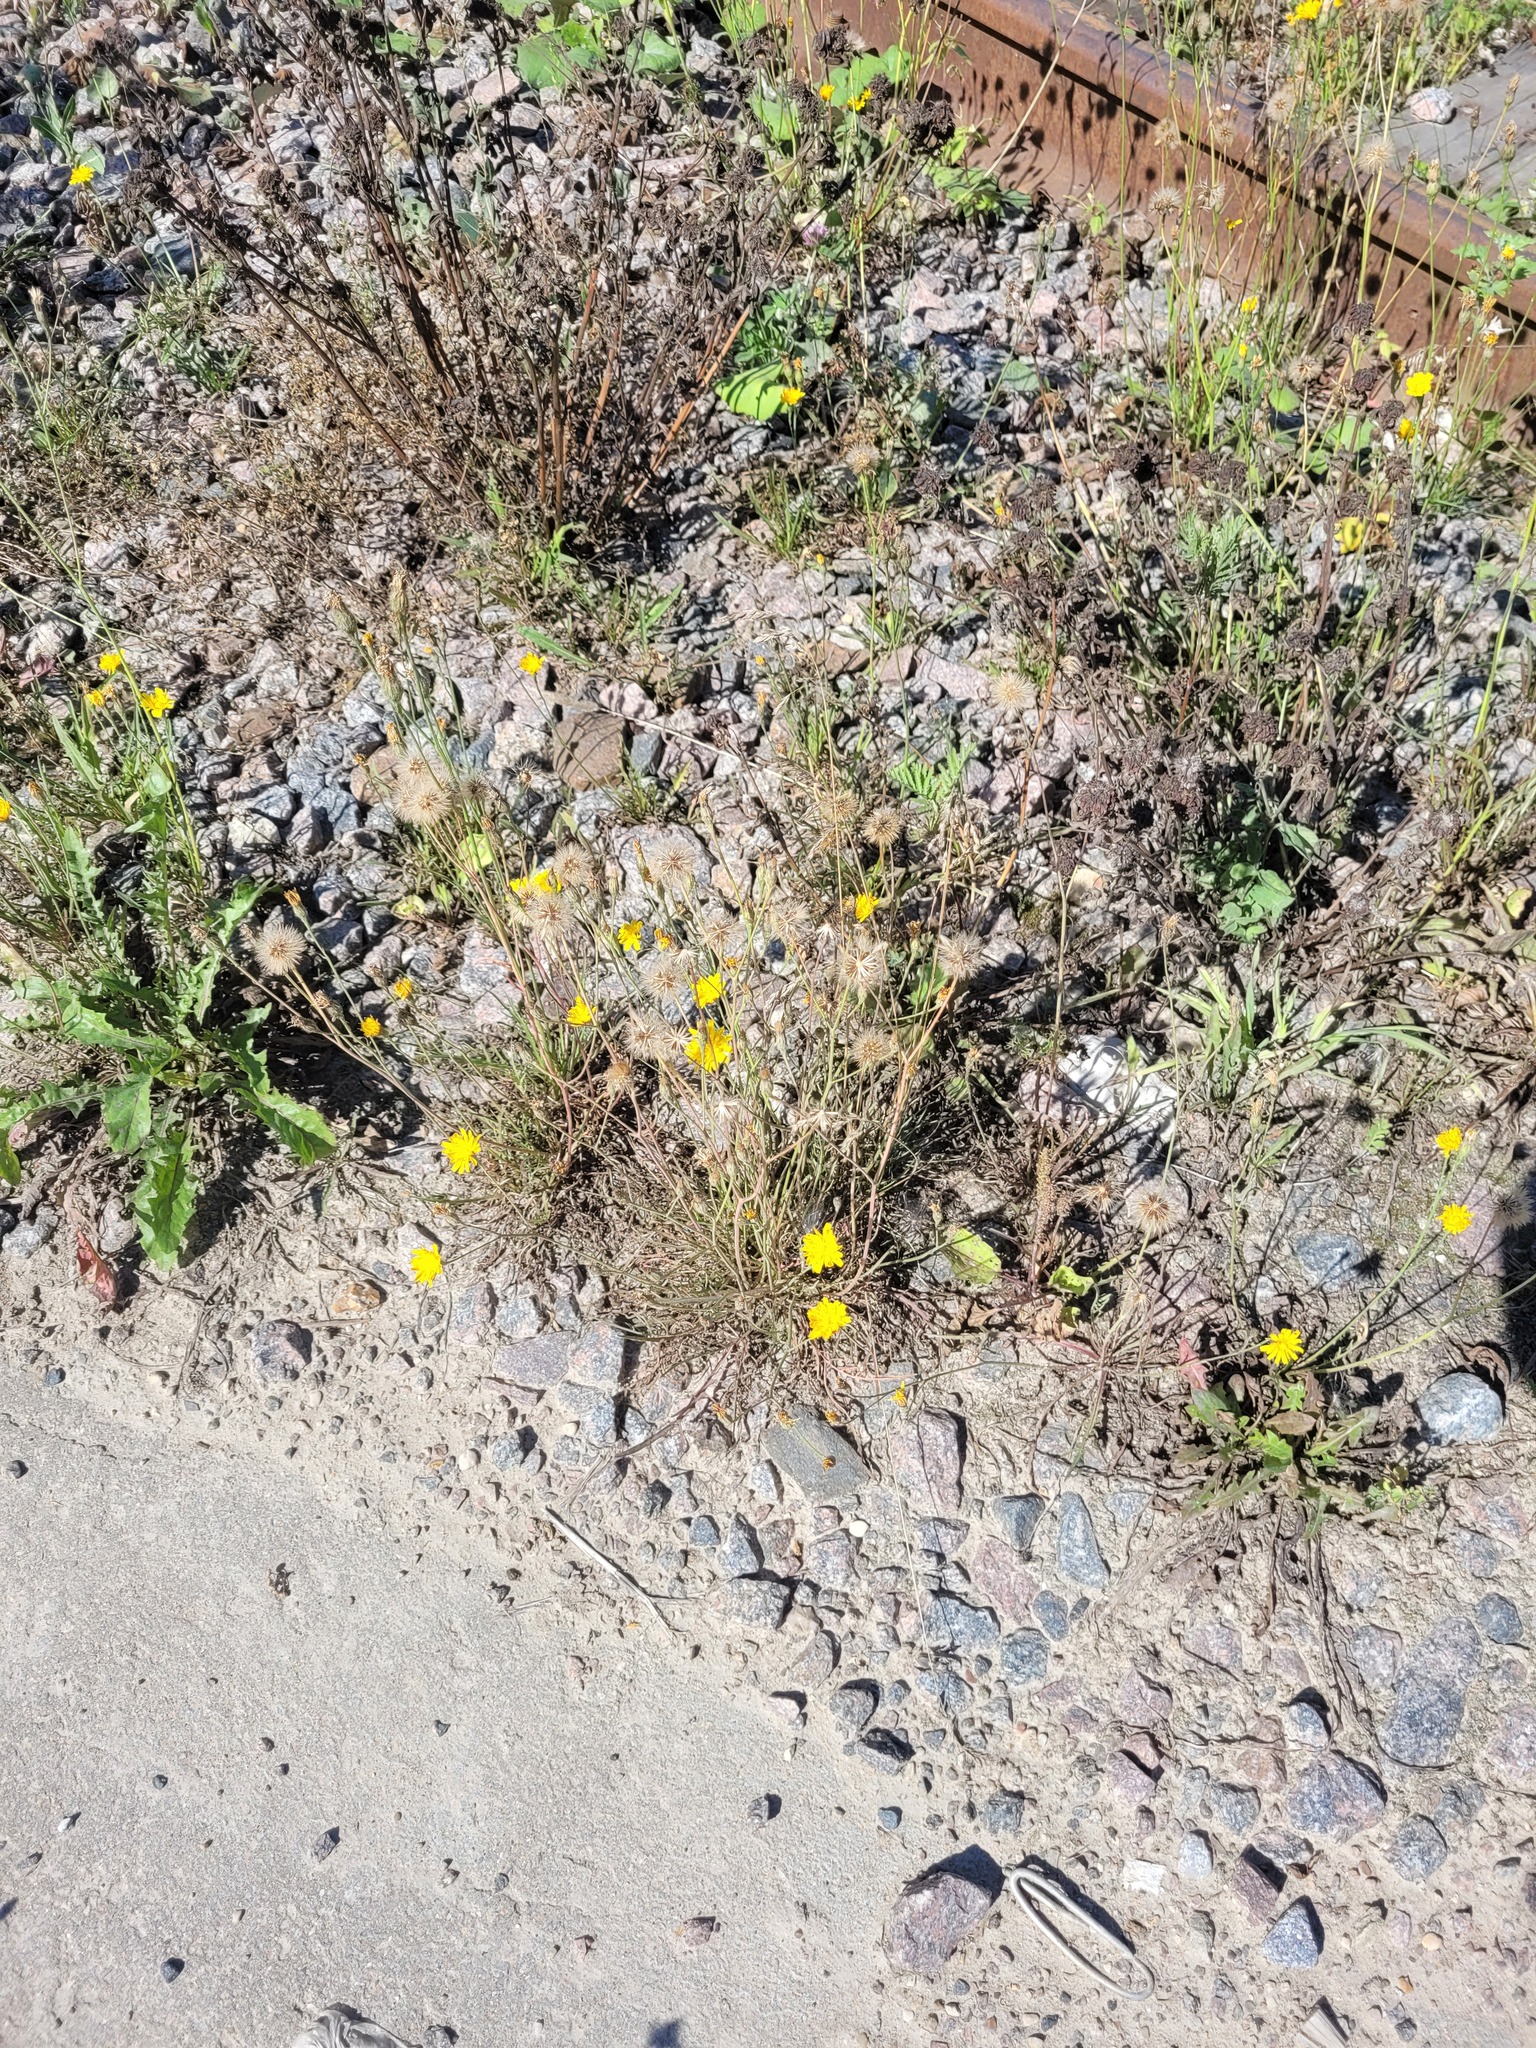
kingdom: Plantae
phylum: Tracheophyta
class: Magnoliopsida
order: Asterales
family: Asteraceae
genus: Scorzoneroides
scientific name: Scorzoneroides autumnalis
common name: Autumn hawkbit
